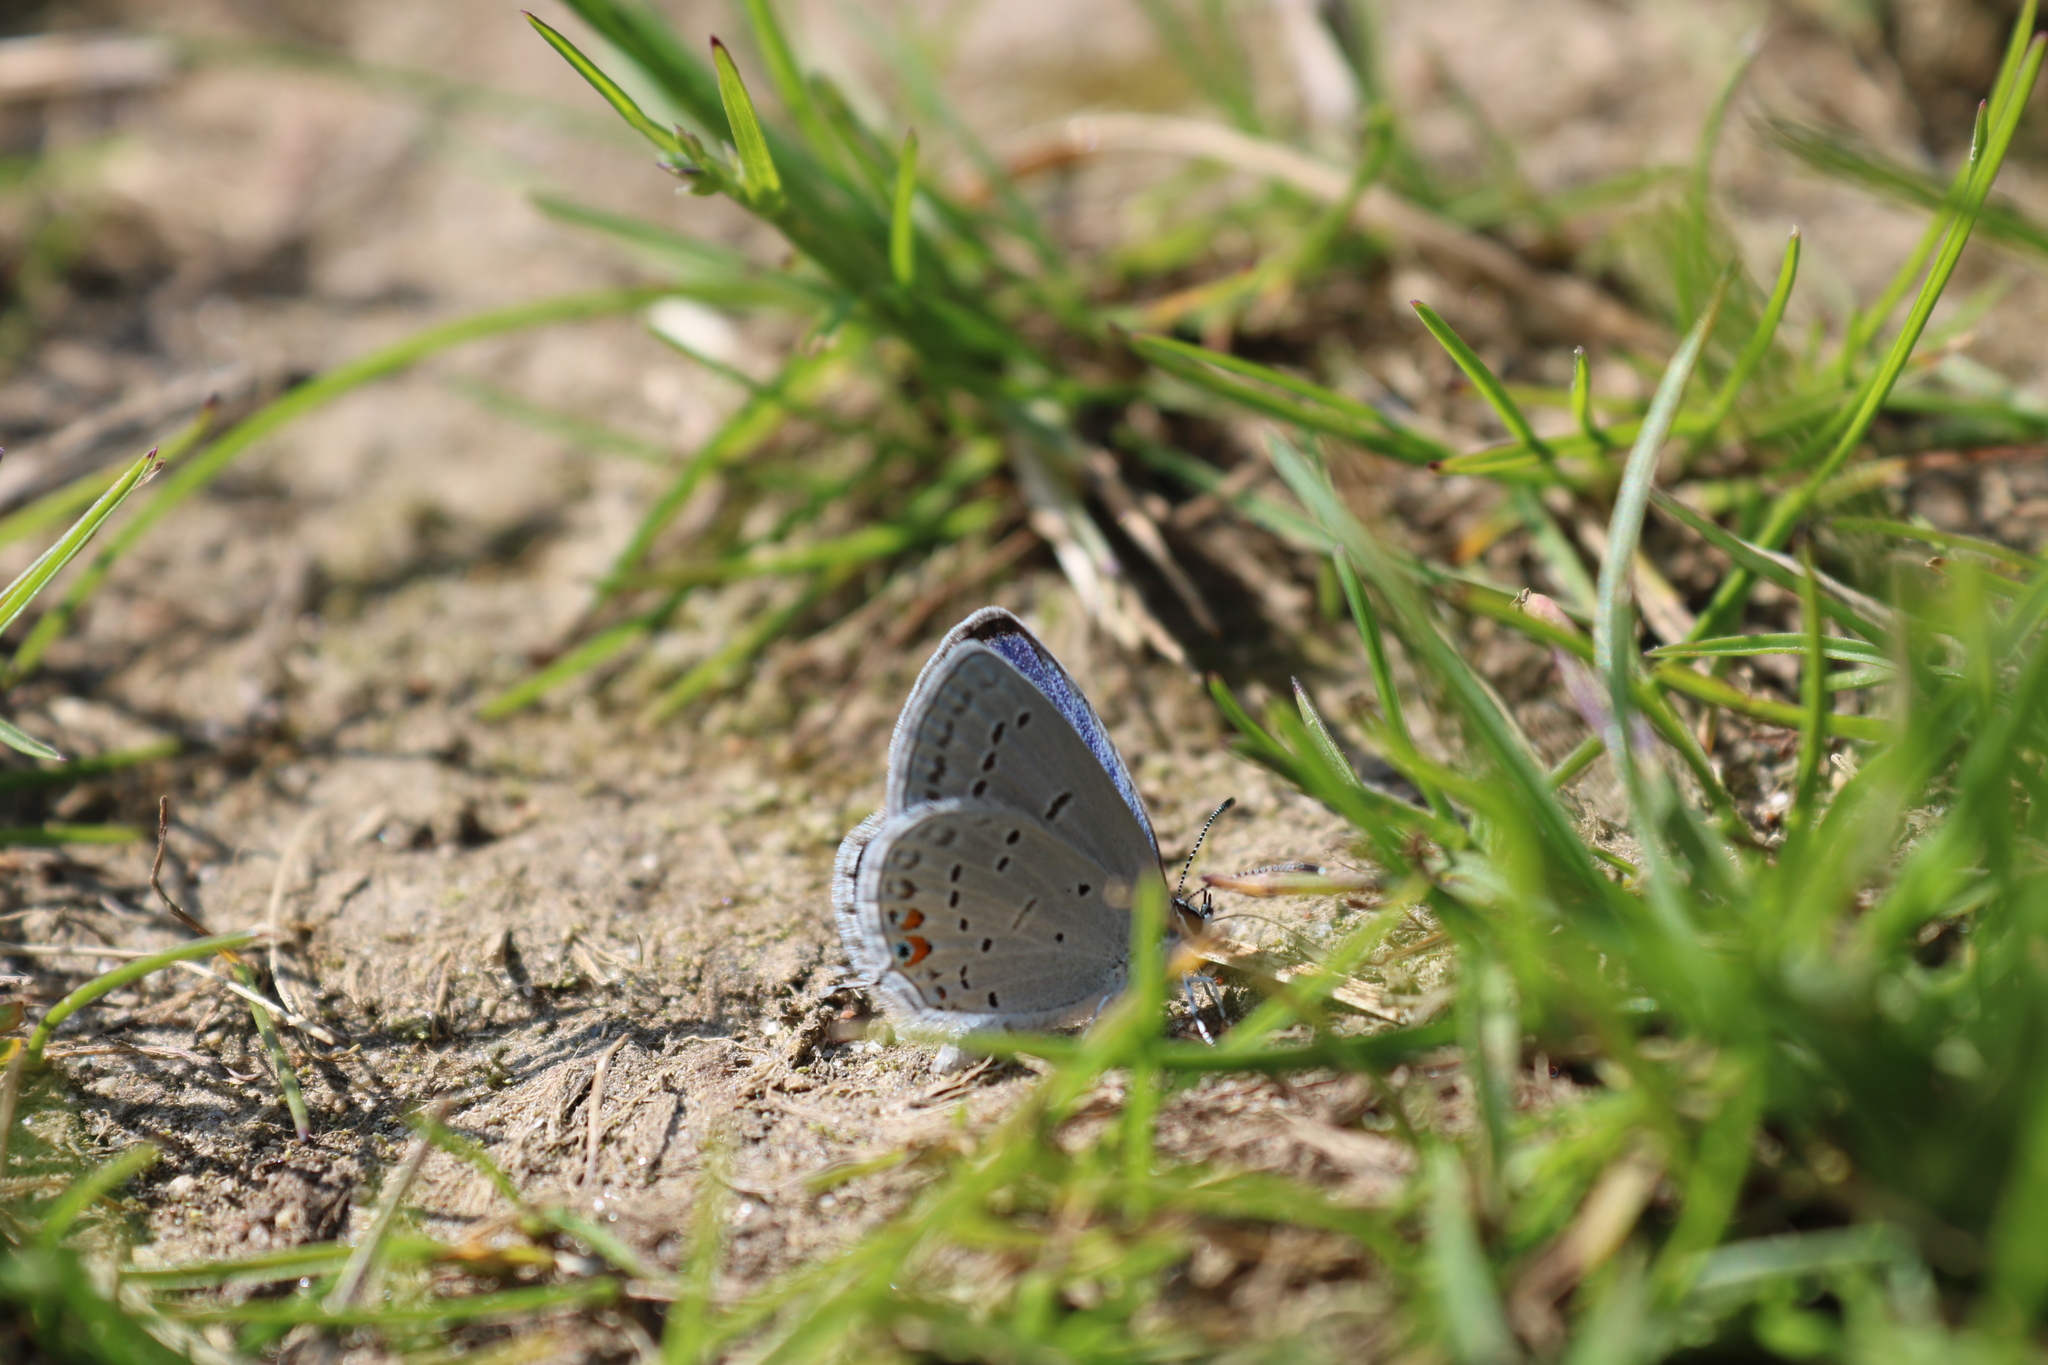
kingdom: Animalia
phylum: Arthropoda
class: Insecta
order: Lepidoptera
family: Lycaenidae
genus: Elkalyce
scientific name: Elkalyce comyntas
